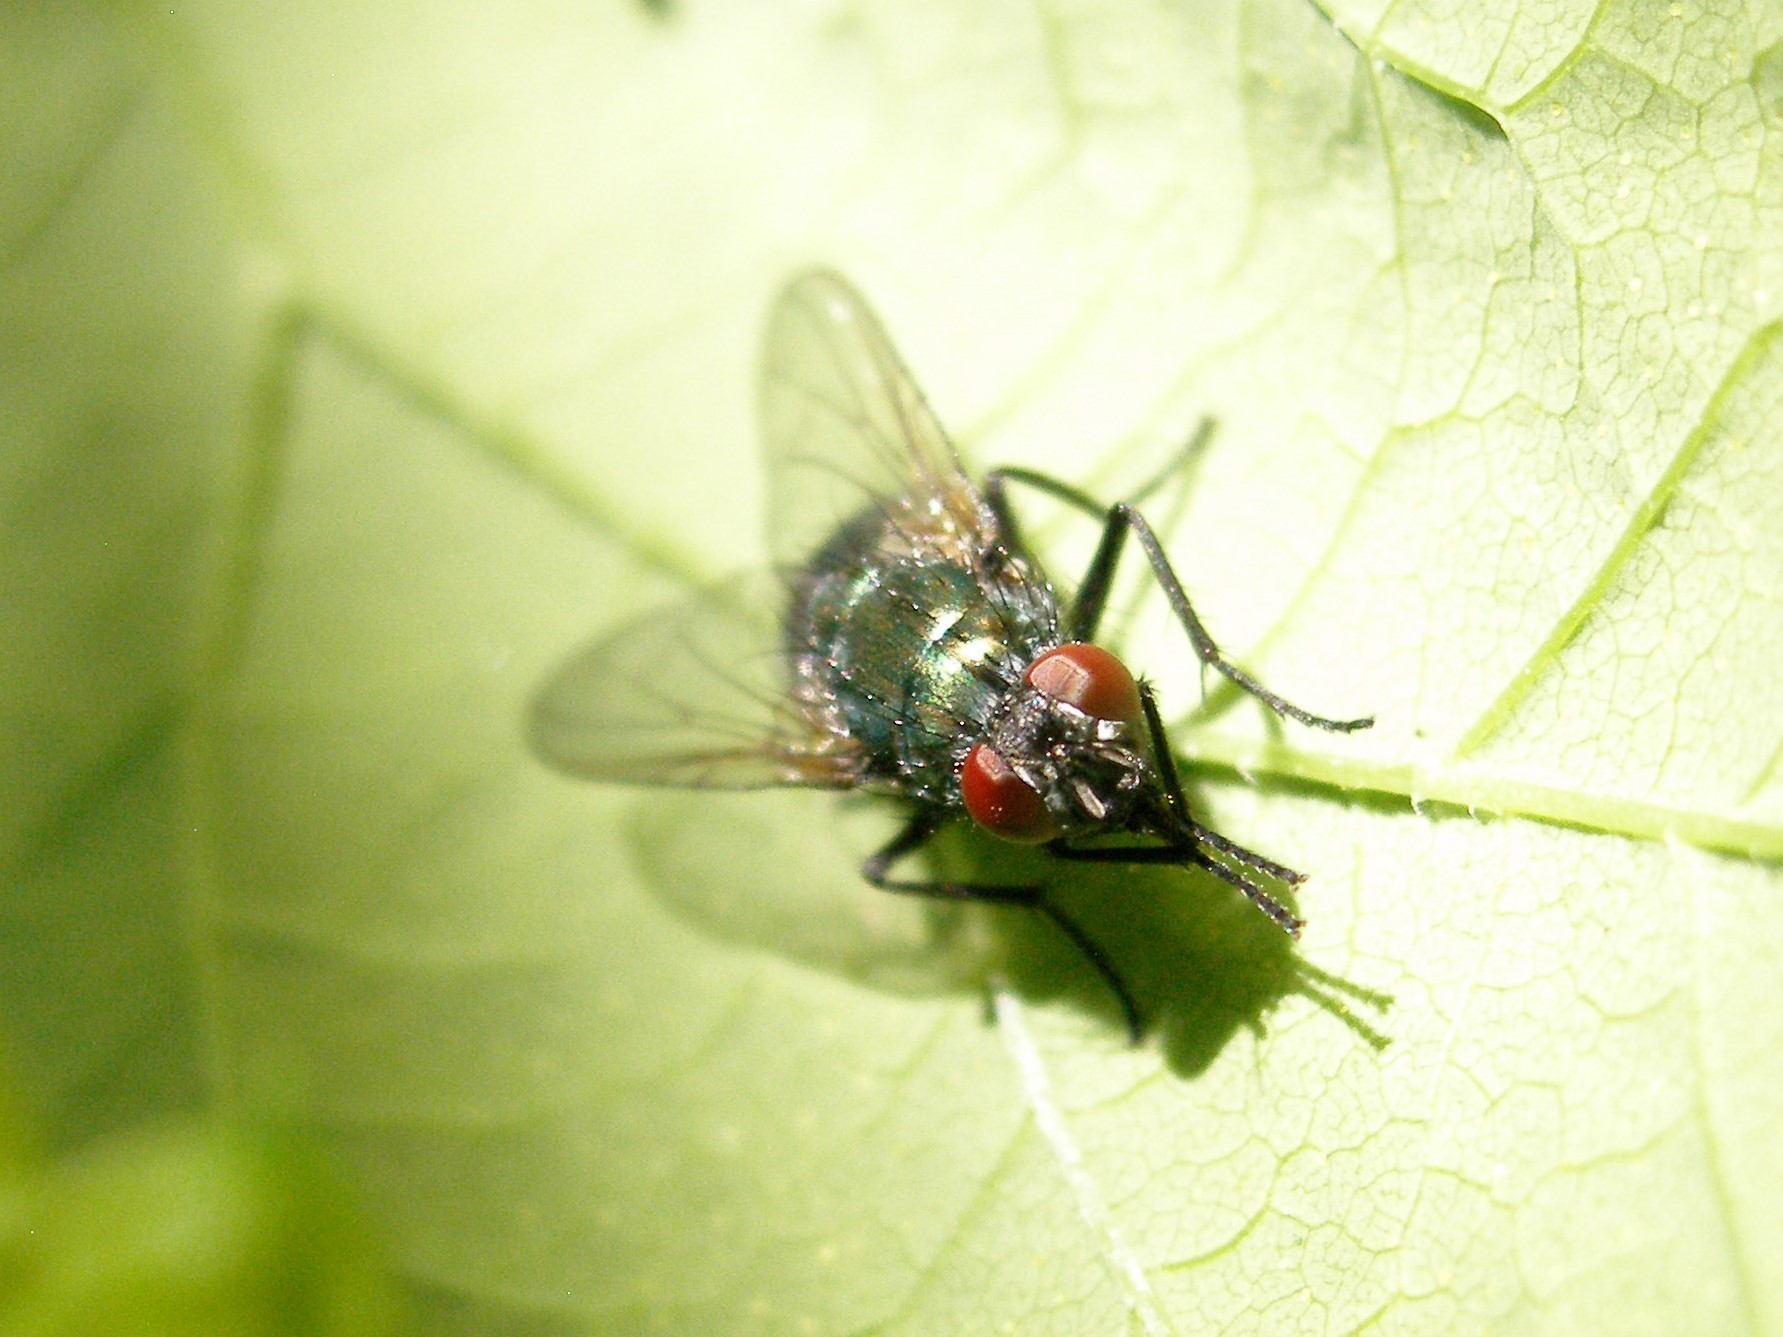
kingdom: Animalia
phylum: Arthropoda
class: Insecta
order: Diptera
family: Muscidae
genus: Dasyphora
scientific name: Dasyphora cyanella
